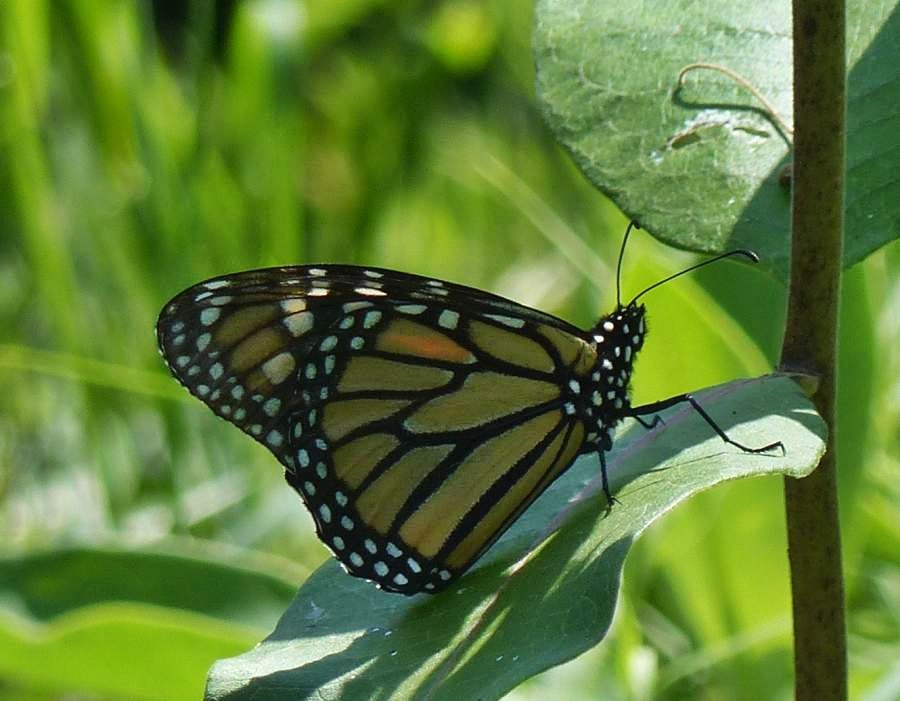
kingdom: Animalia
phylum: Arthropoda
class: Insecta
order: Lepidoptera
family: Nymphalidae
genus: Danaus
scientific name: Danaus plexippus
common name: Monarch
